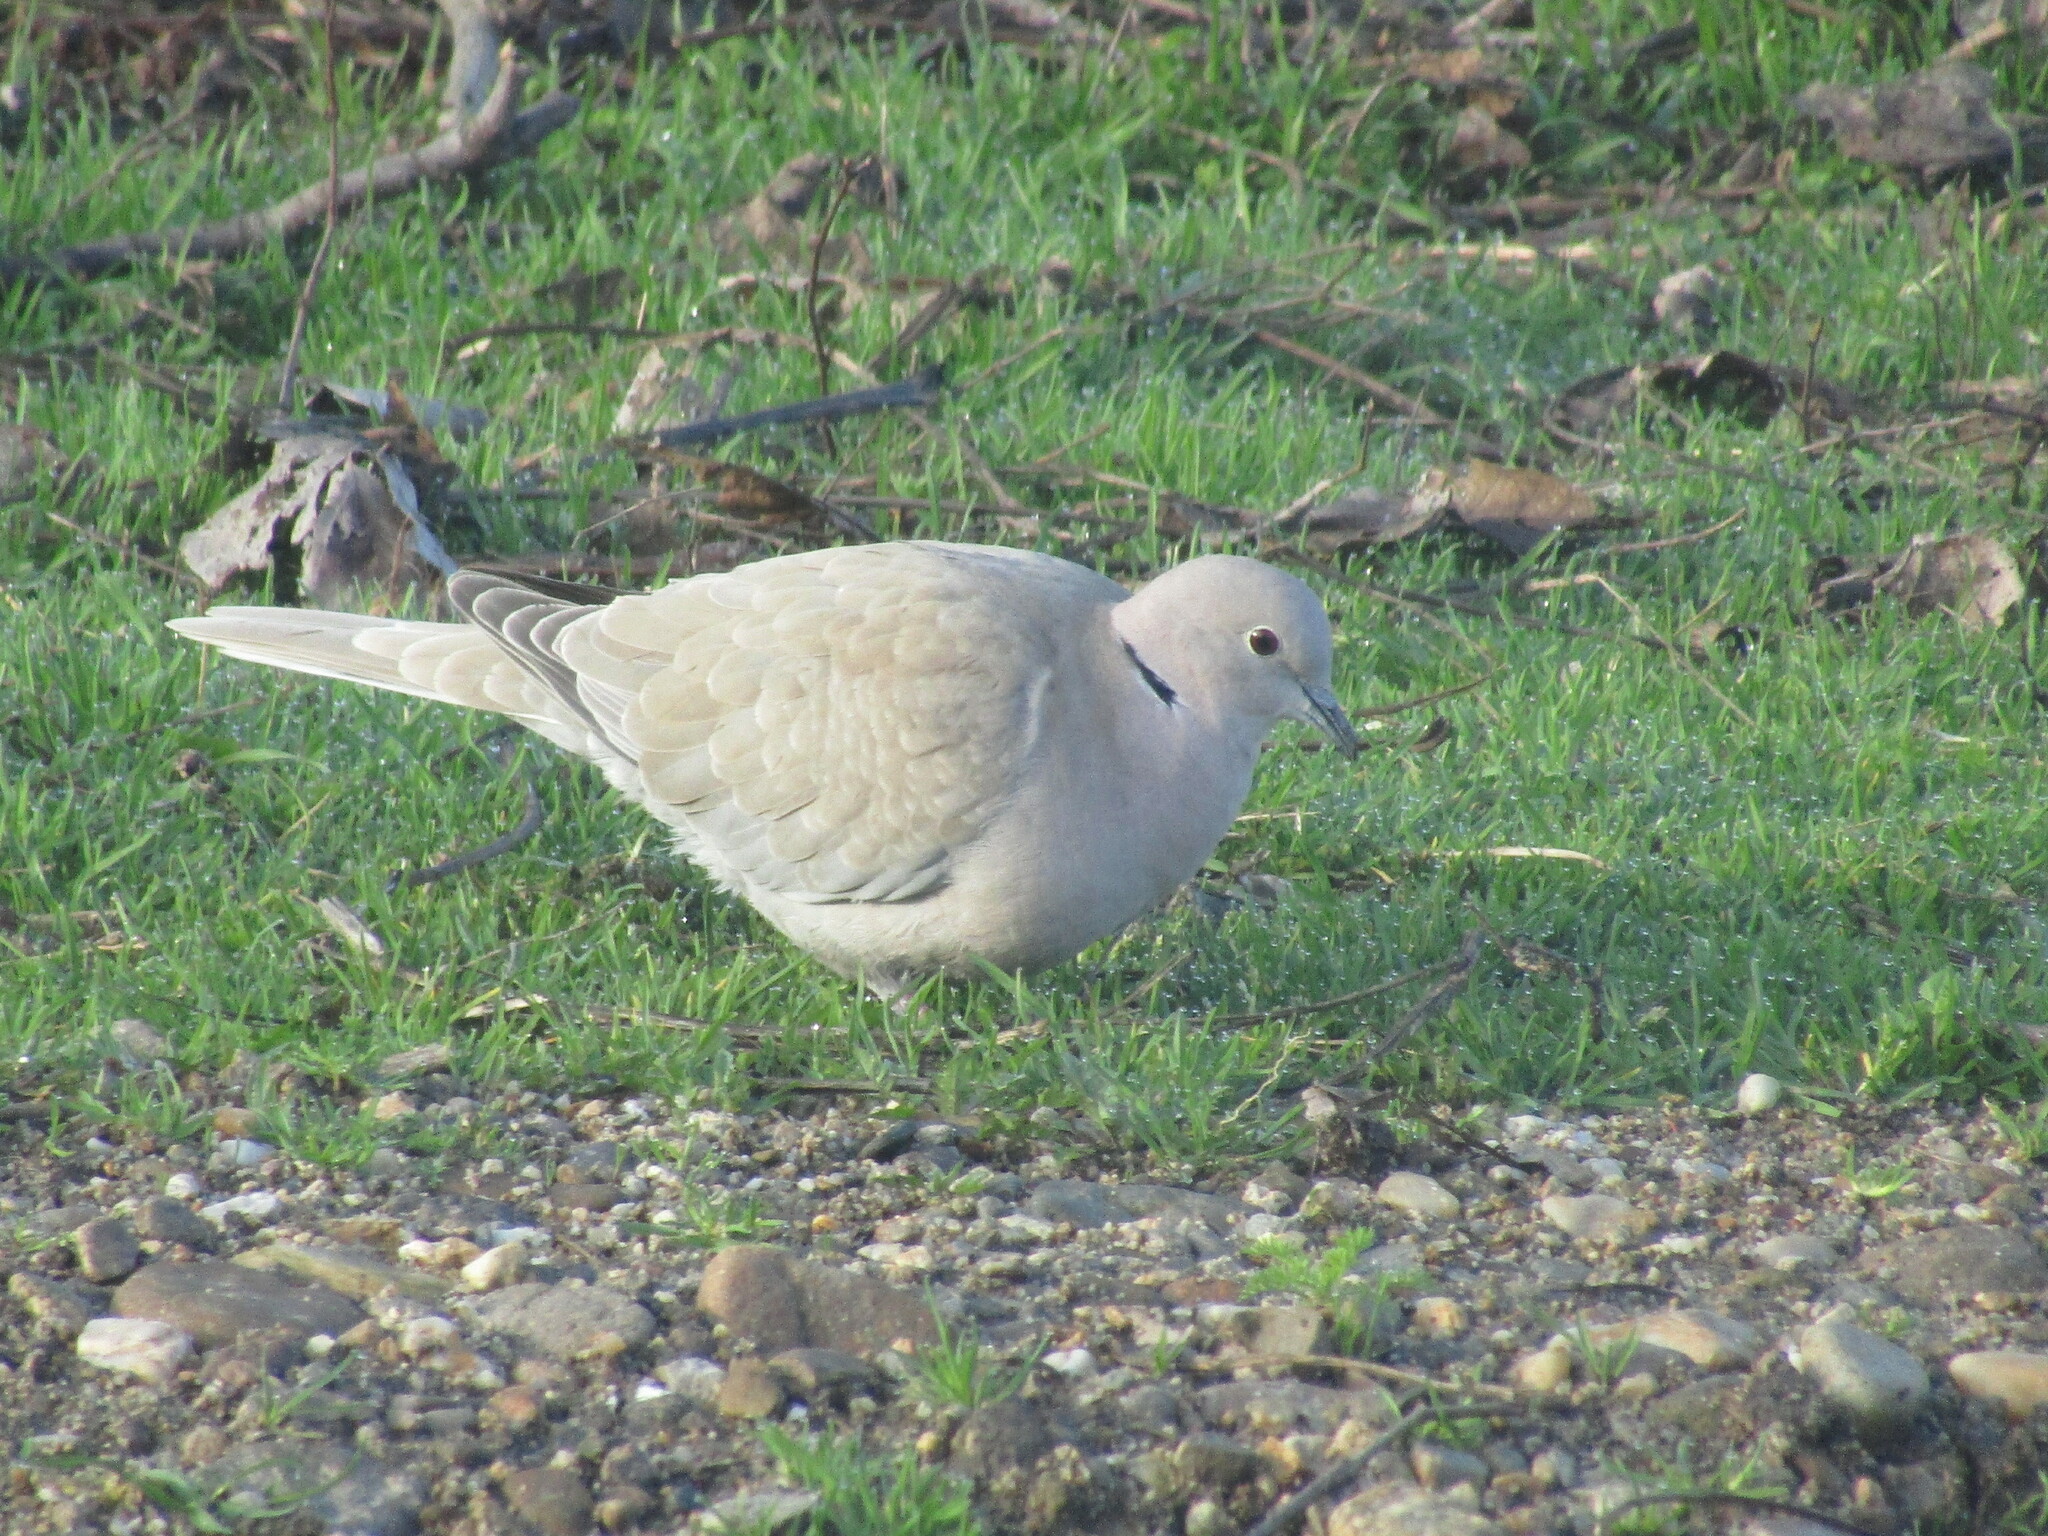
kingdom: Animalia
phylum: Chordata
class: Aves
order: Columbiformes
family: Columbidae
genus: Streptopelia
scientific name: Streptopelia decaocto
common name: Eurasian collared dove
